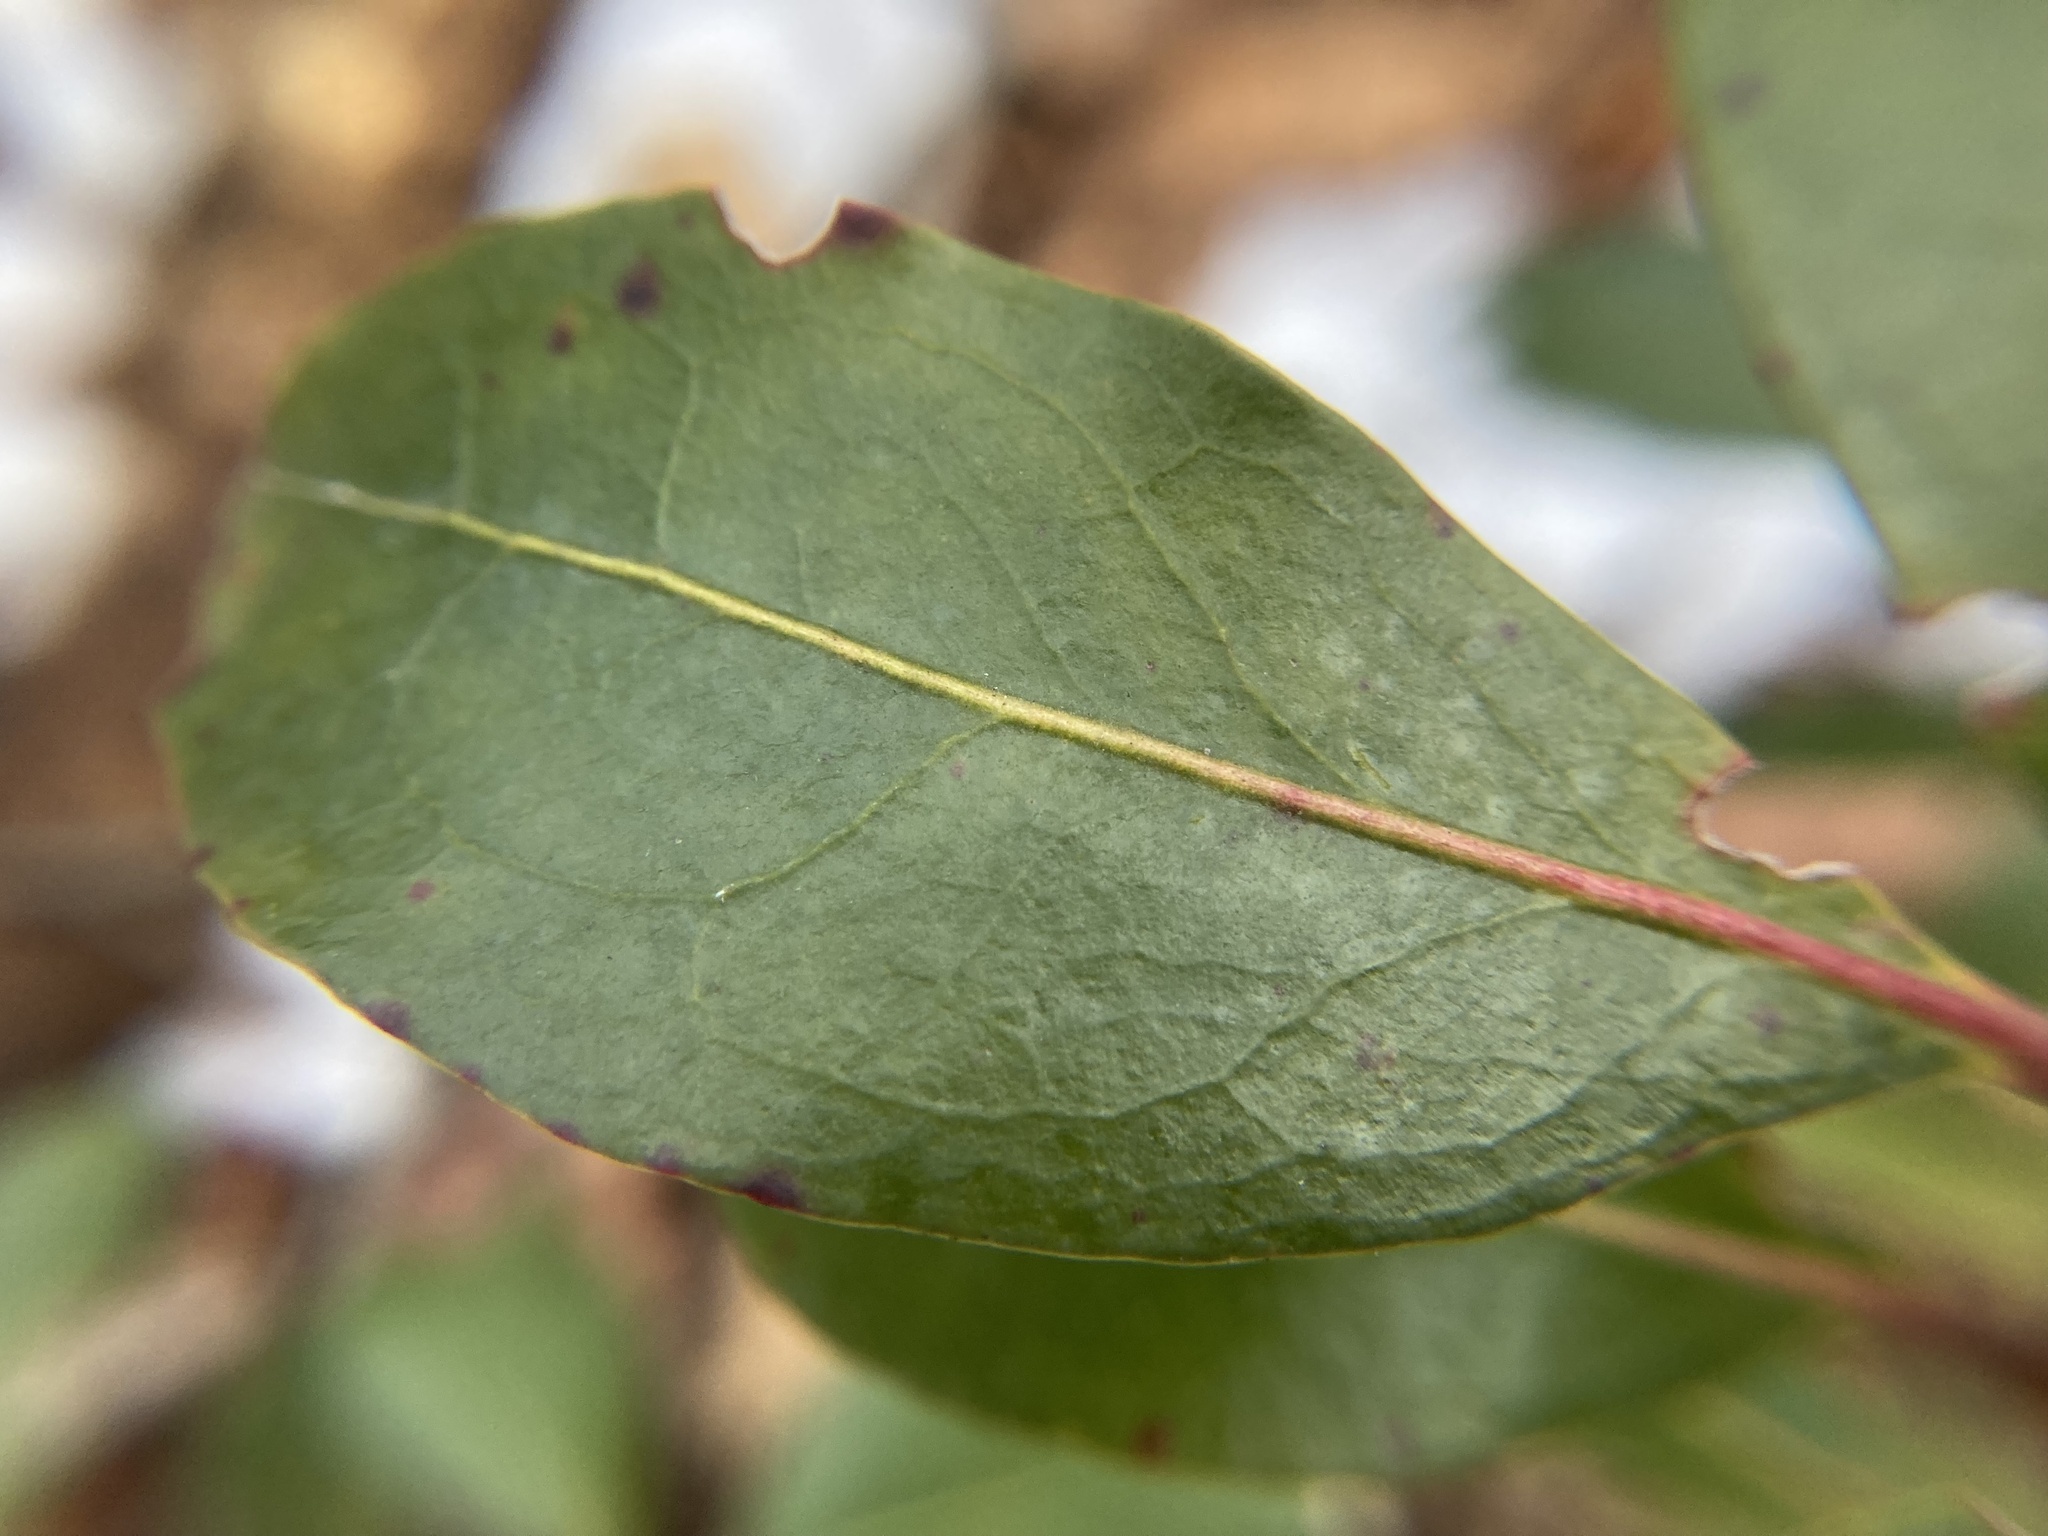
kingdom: Plantae
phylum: Tracheophyta
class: Magnoliopsida
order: Ericales
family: Ericaceae
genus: Kalmia
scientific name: Kalmia latifolia
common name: Mountain-laurel
